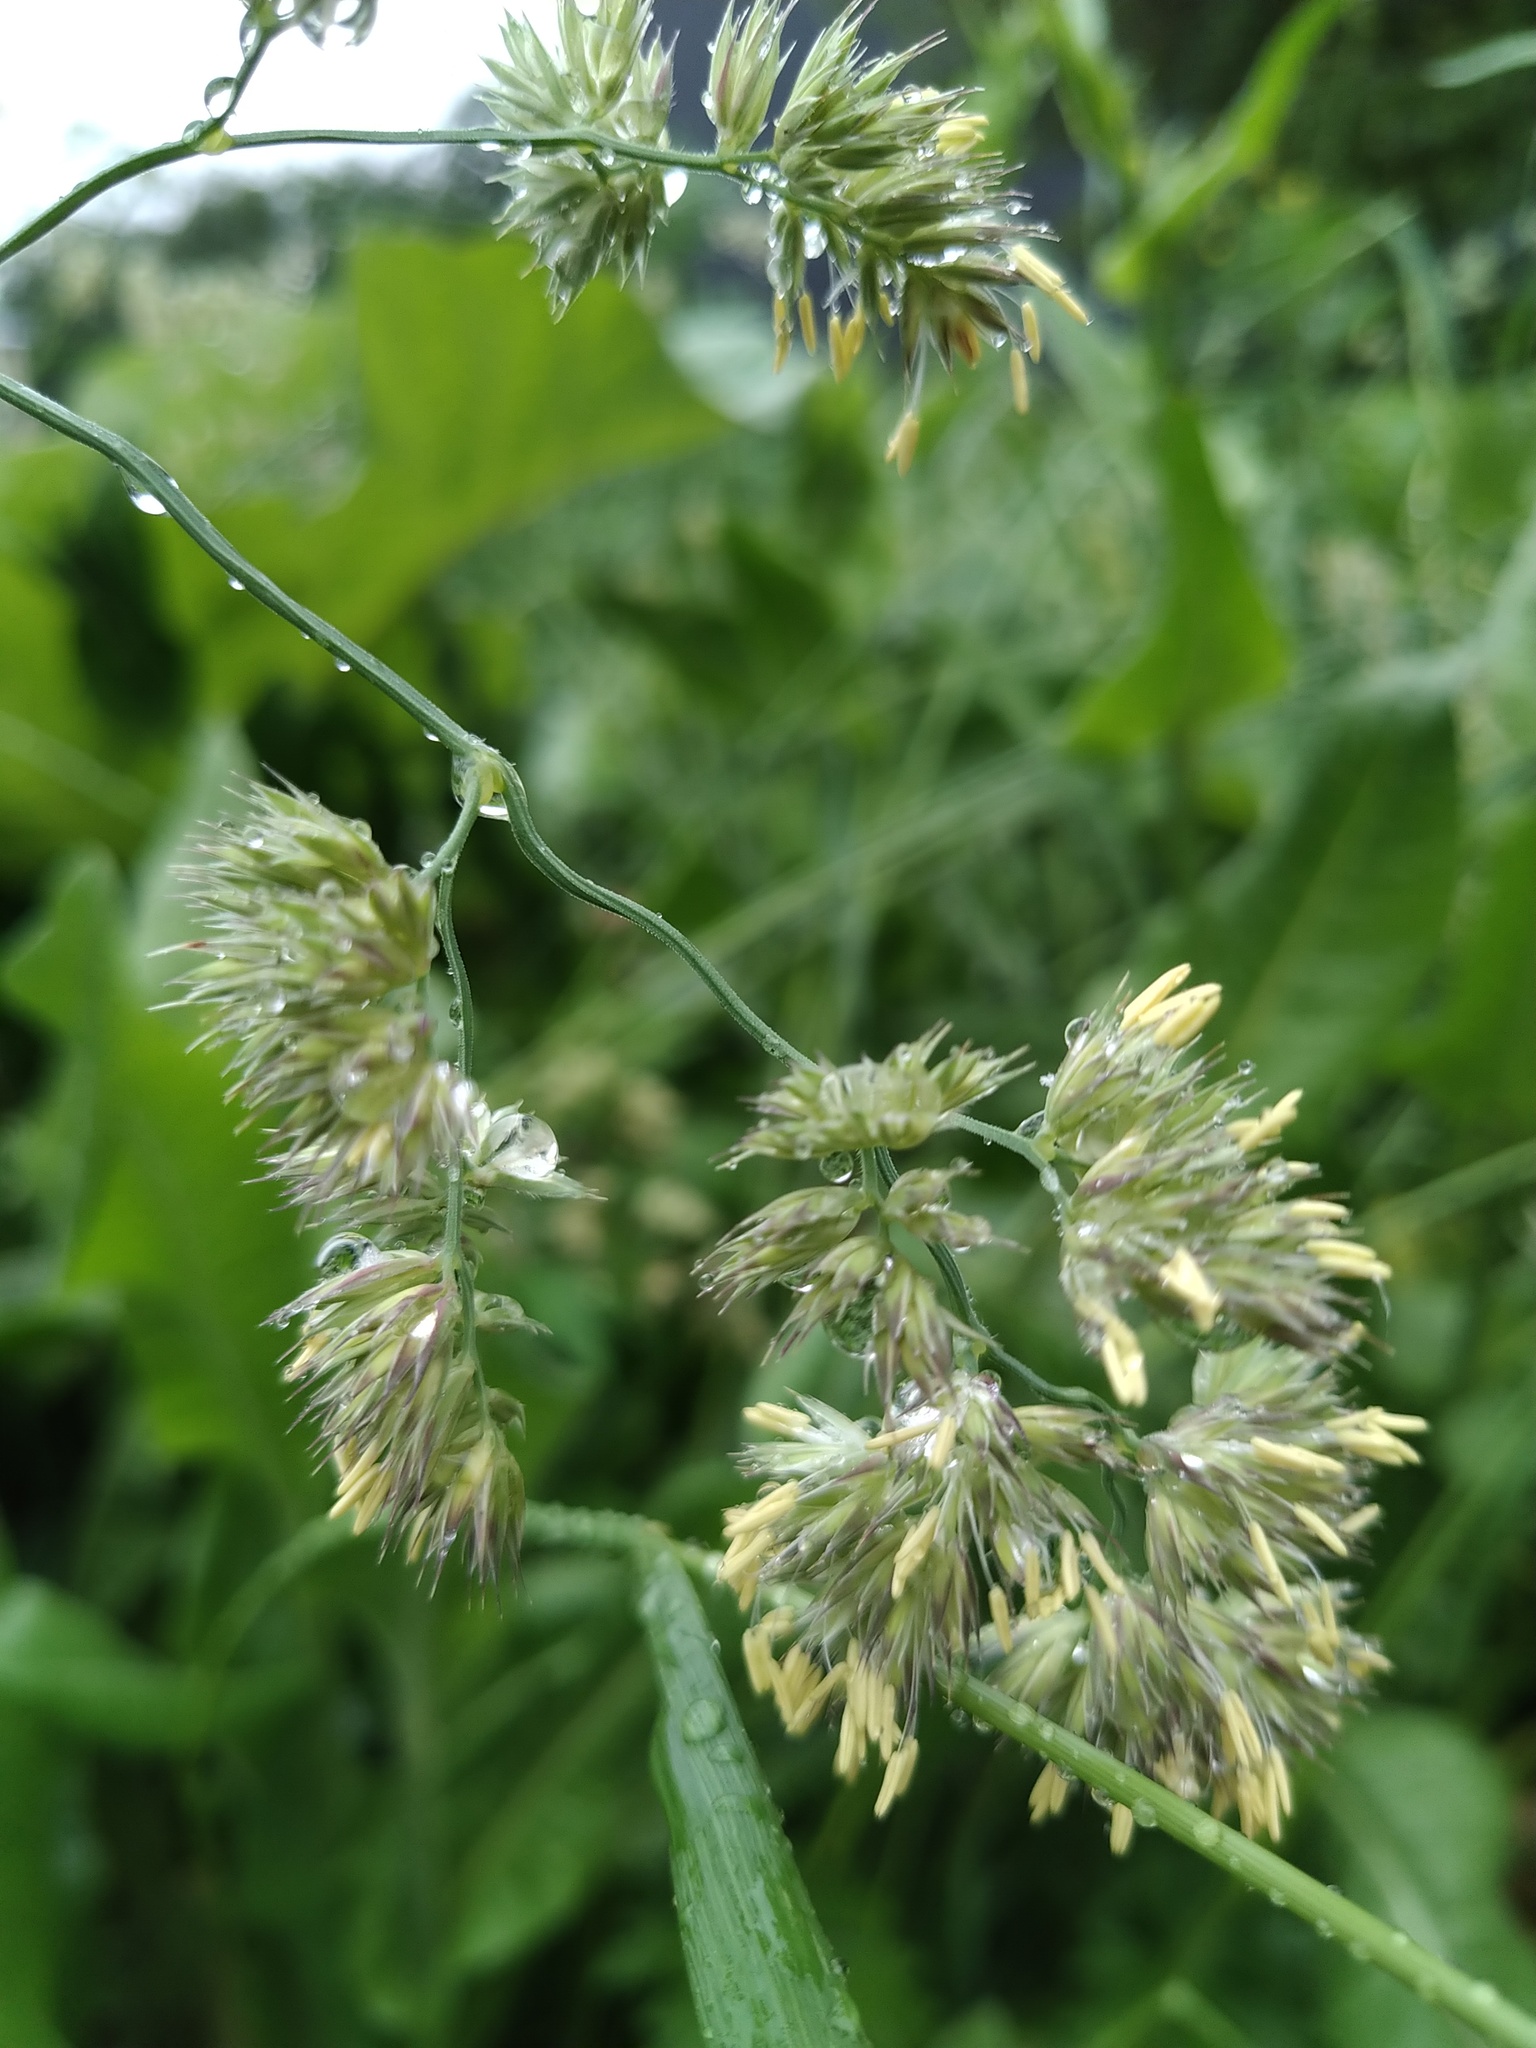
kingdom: Plantae
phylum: Tracheophyta
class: Liliopsida
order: Poales
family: Poaceae
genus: Dactylis
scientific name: Dactylis glomerata
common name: Orchardgrass
